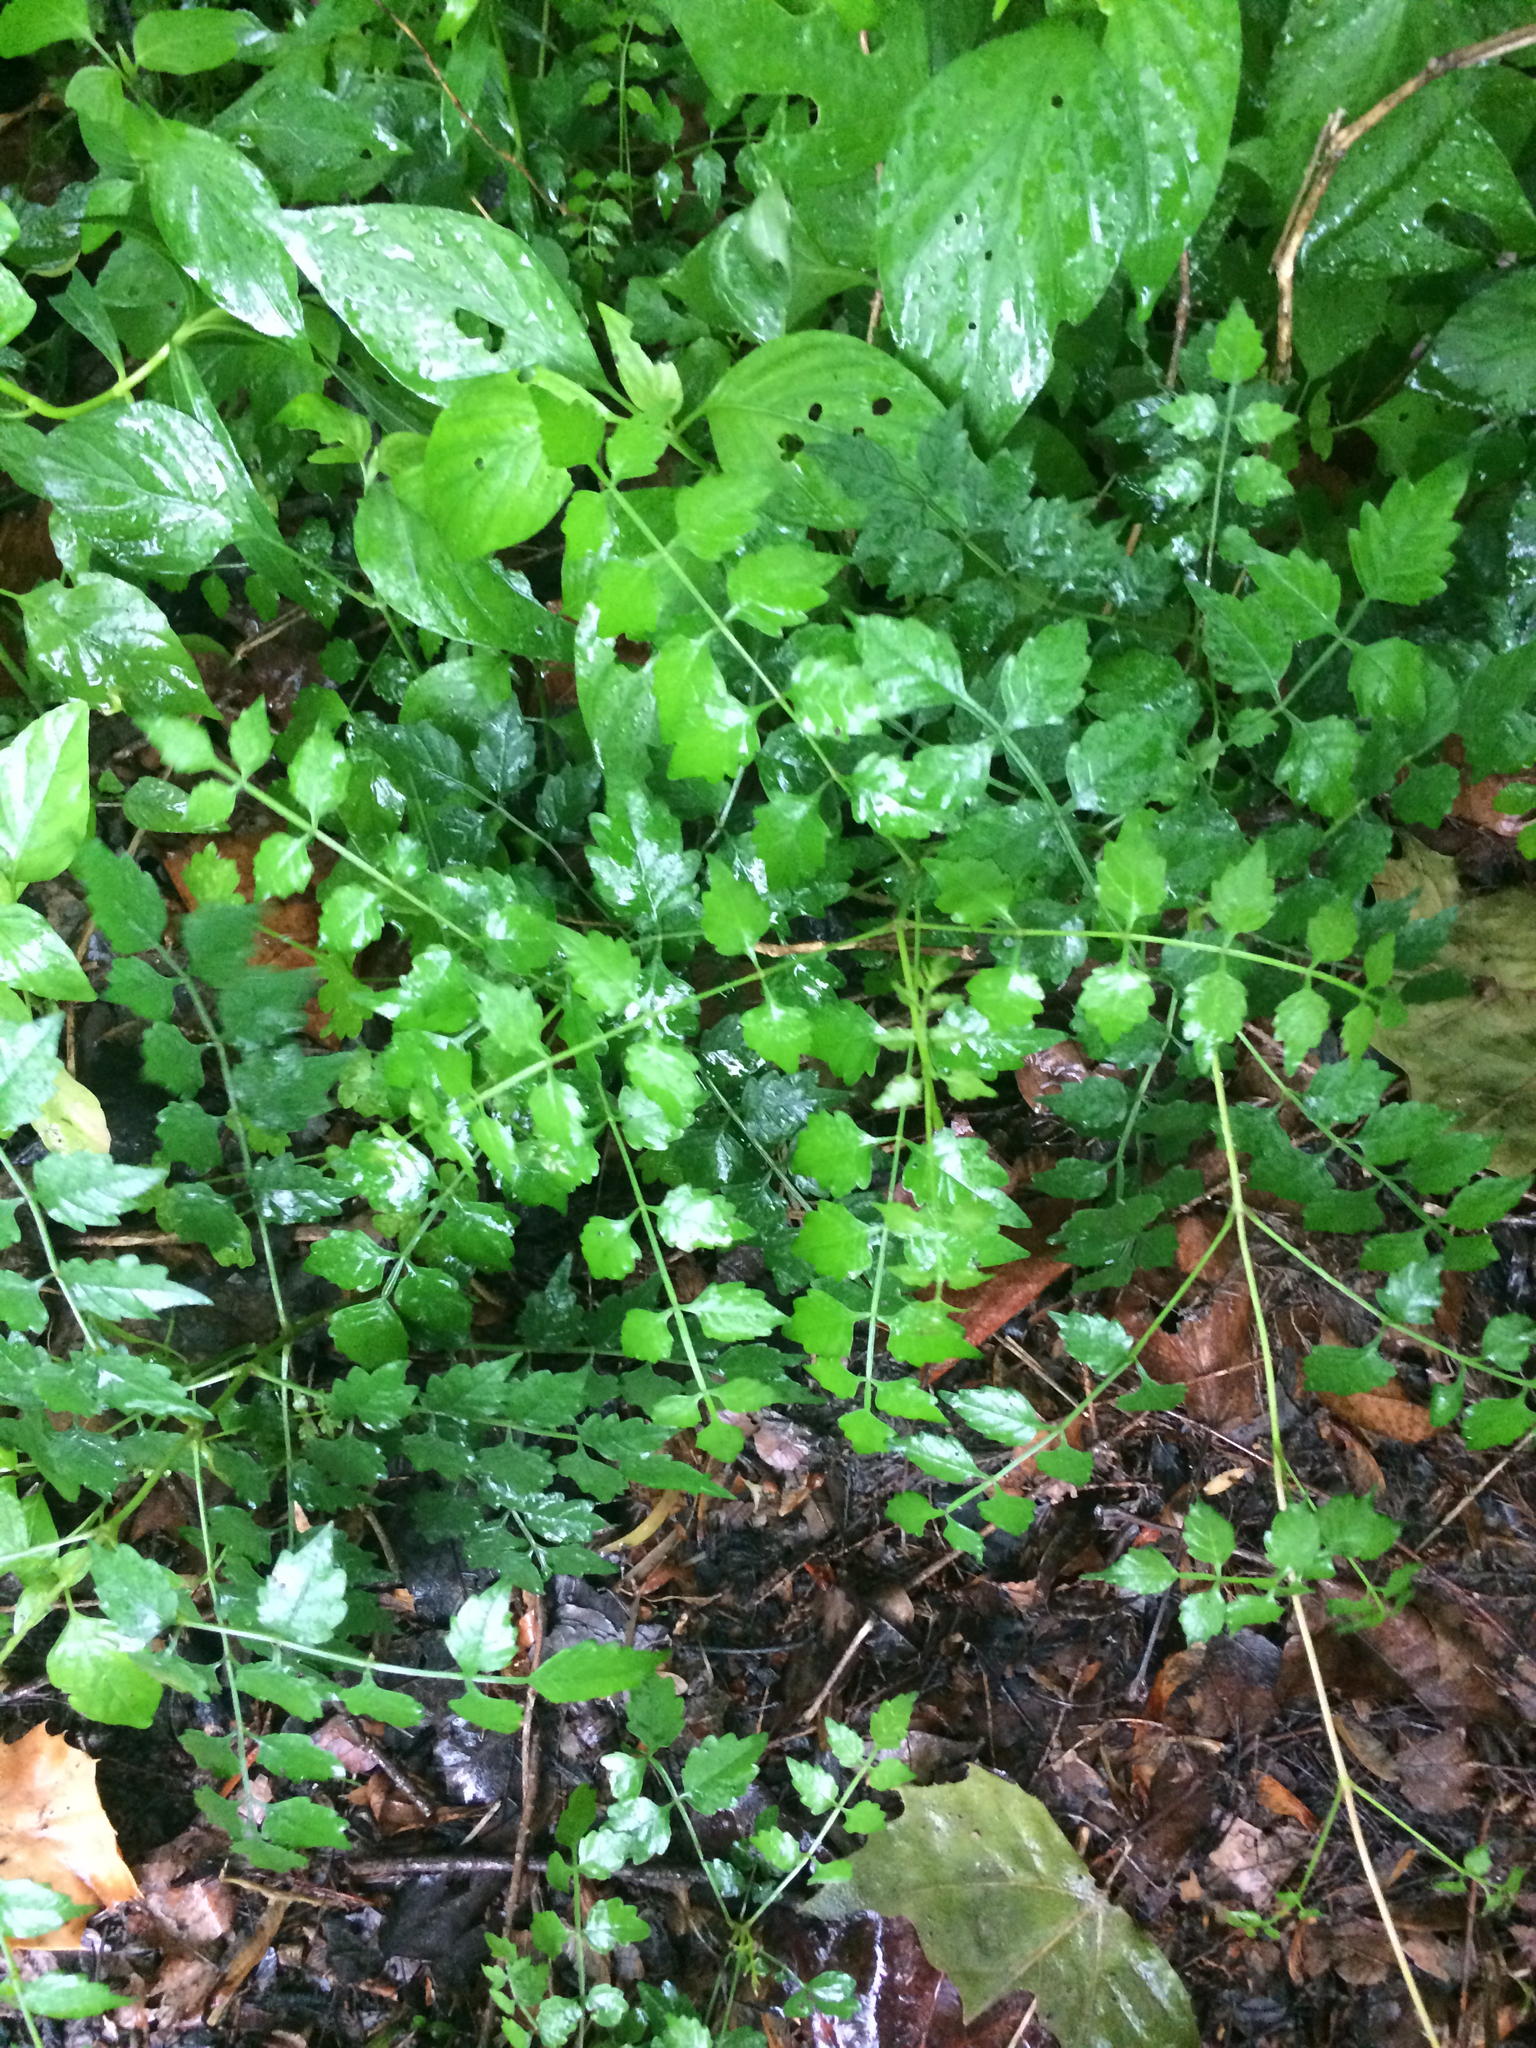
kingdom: Plantae
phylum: Tracheophyta
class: Magnoliopsida
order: Lamiales
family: Bignoniaceae
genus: Campsis
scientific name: Campsis radicans
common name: Trumpet-creeper
